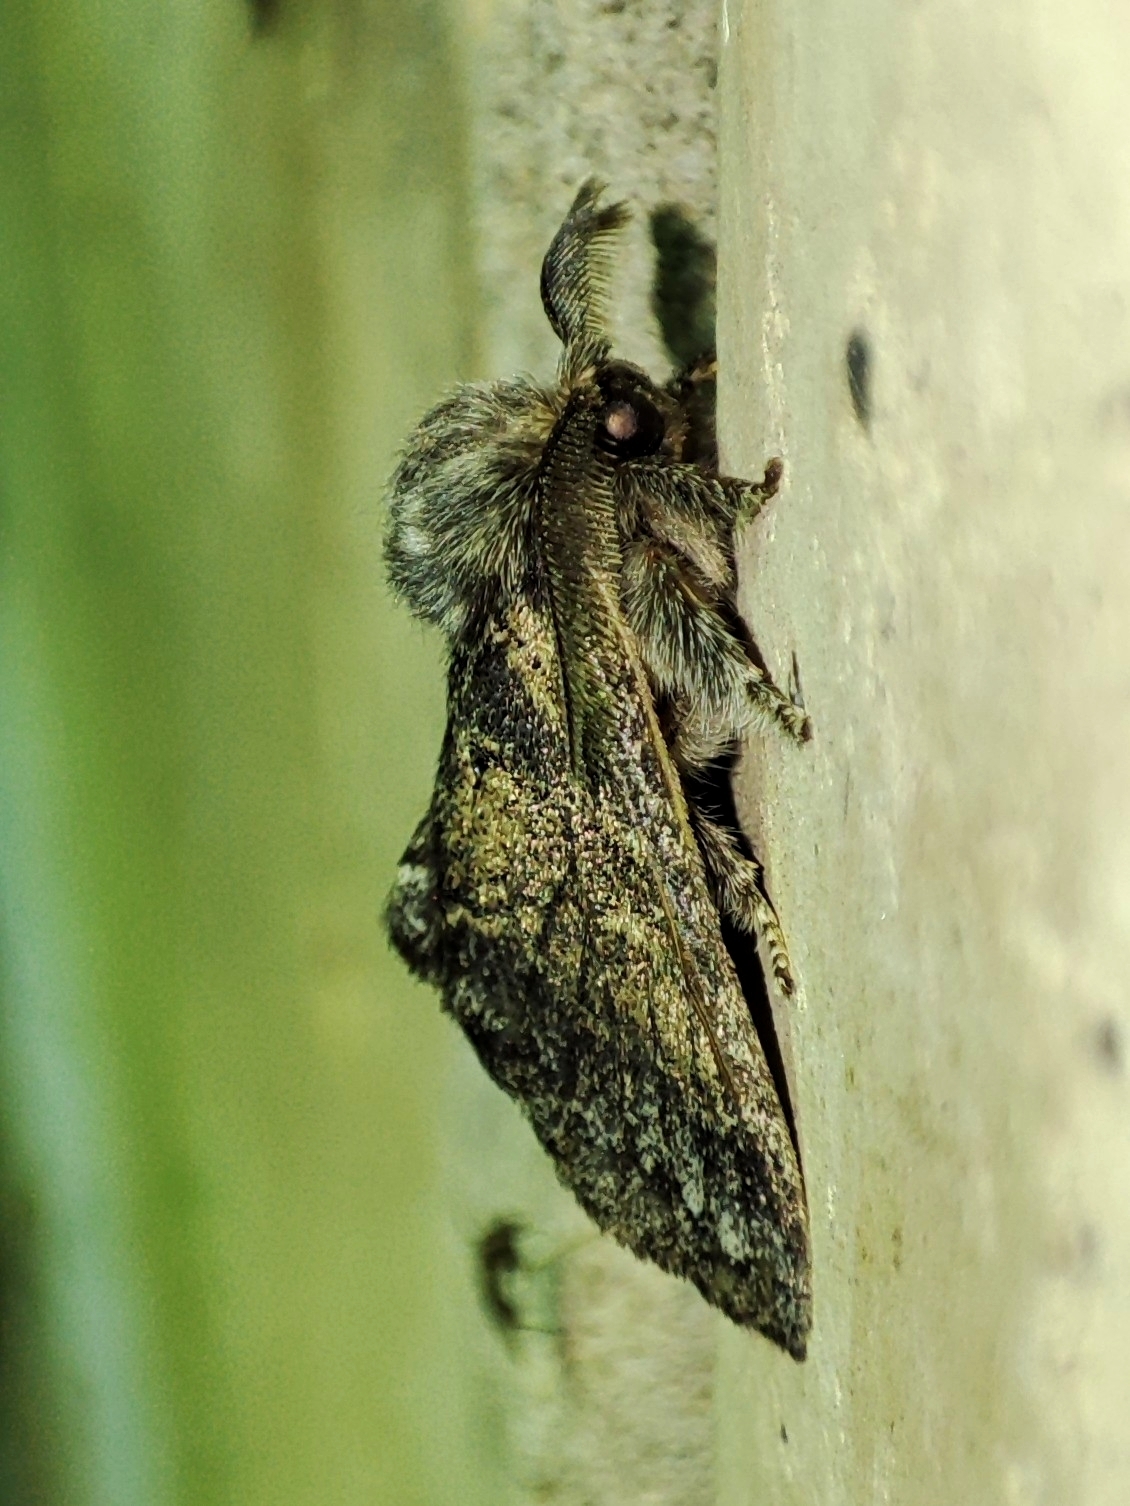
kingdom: Animalia
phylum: Arthropoda
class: Insecta
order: Lepidoptera
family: Notodontidae
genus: Gluphisia
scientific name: Gluphisia crenata
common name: Dusky marbled brown
